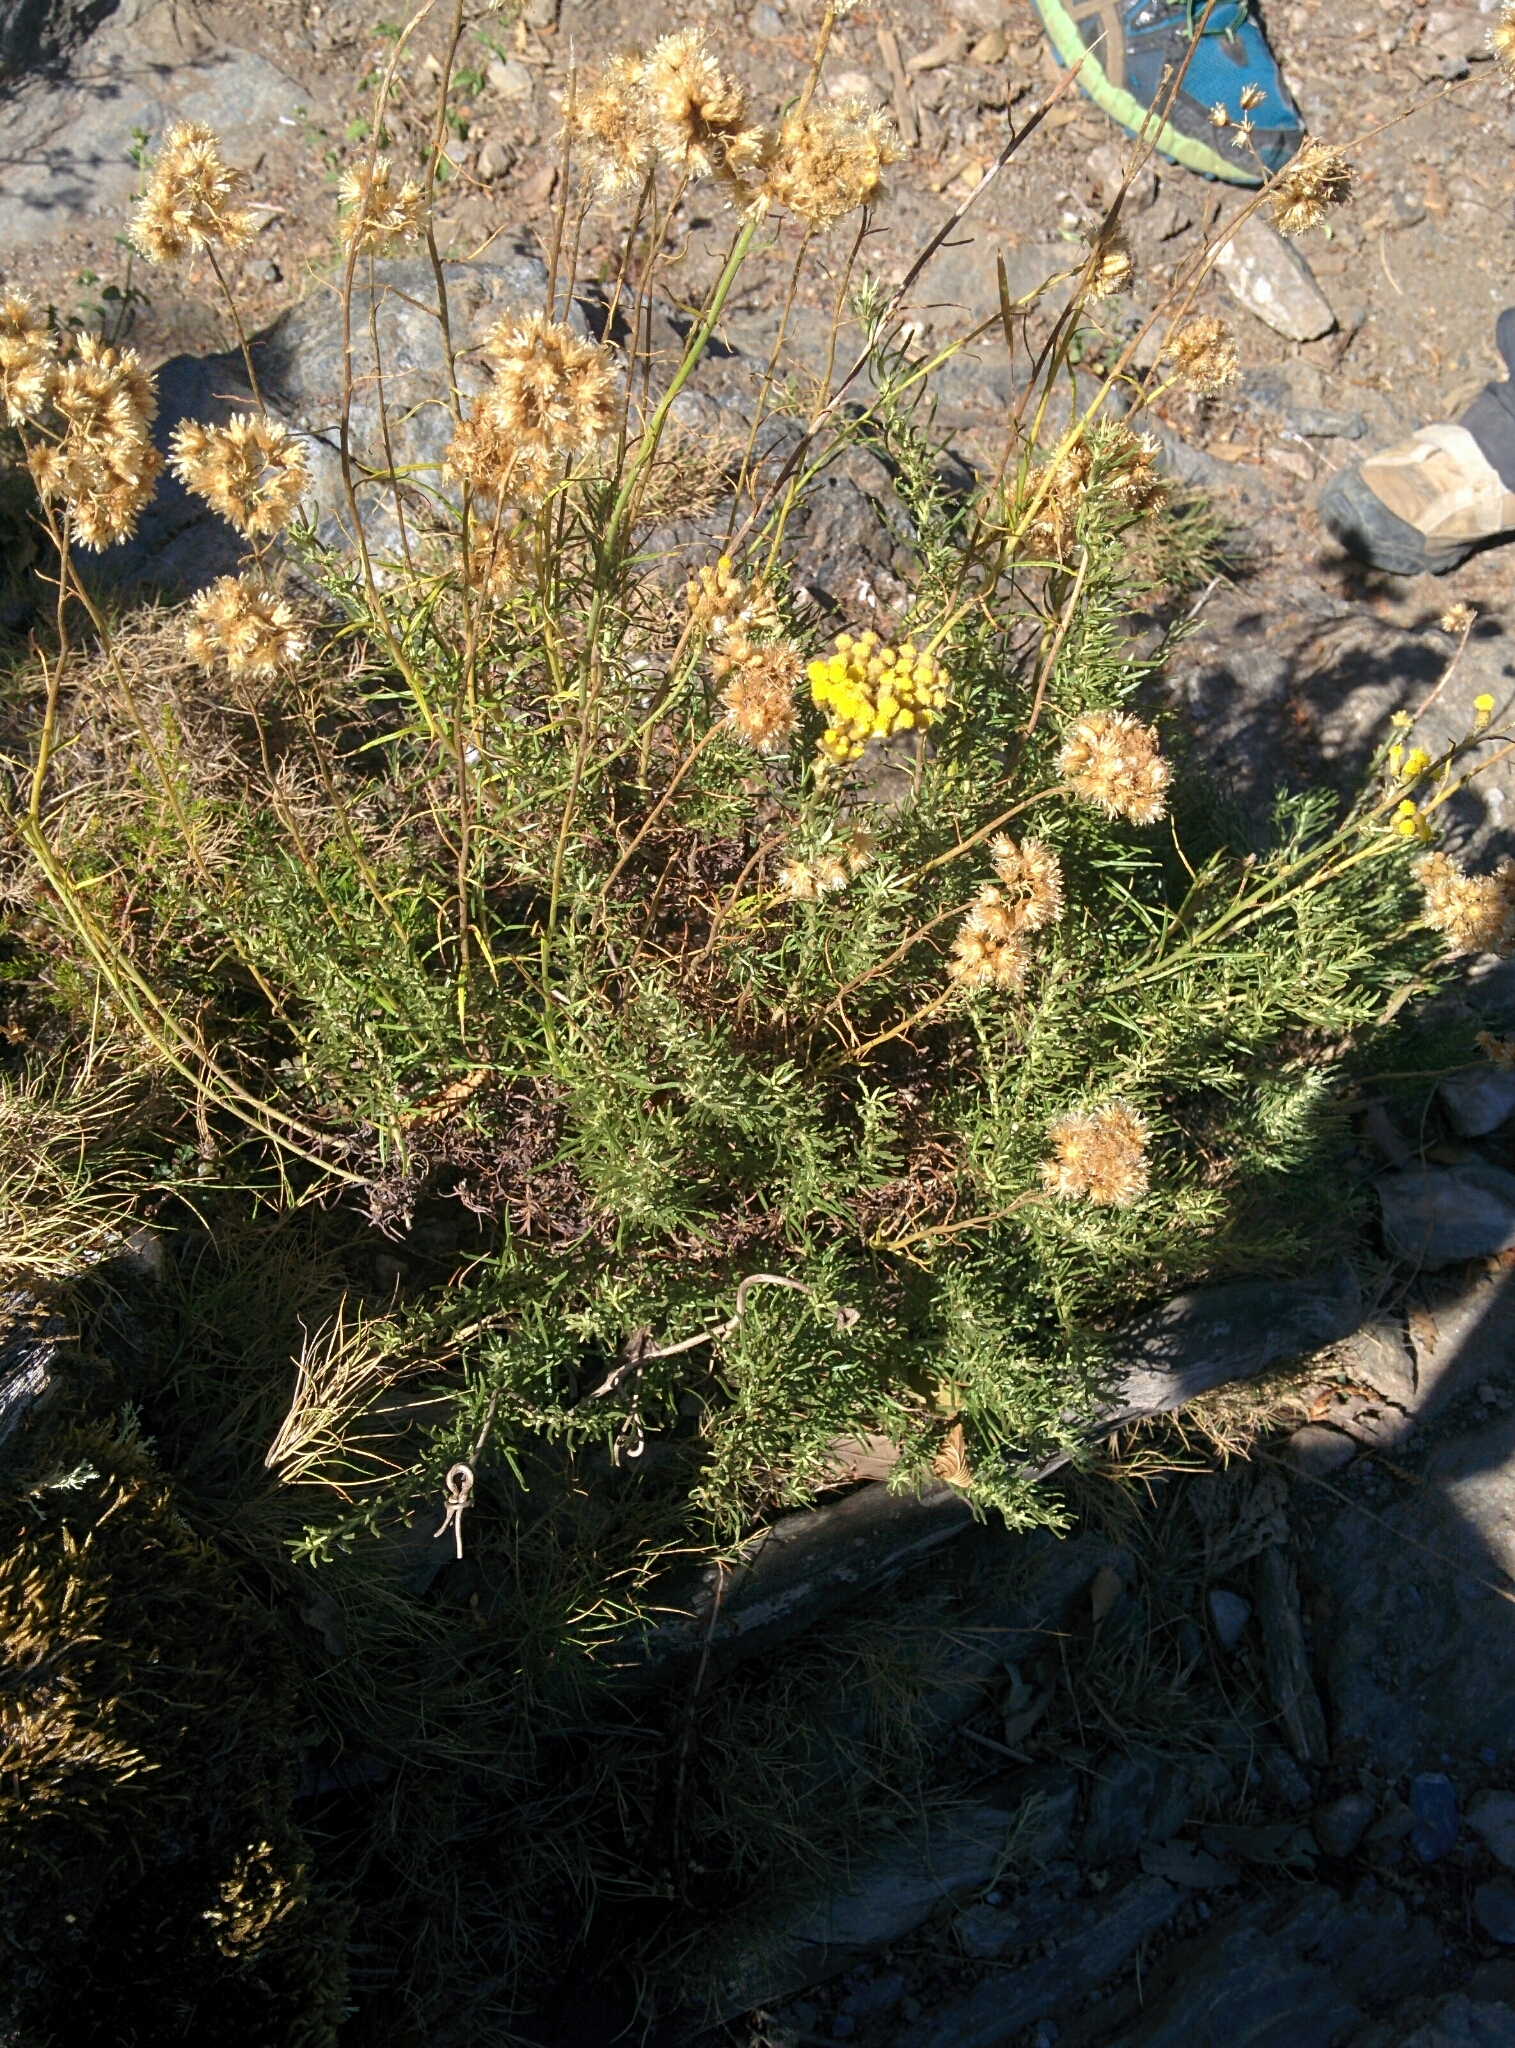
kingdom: Plantae
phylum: Tracheophyta
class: Magnoliopsida
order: Asterales
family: Asteraceae
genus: Helichrysum
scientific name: Helichrysum italicum
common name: Curryplant
